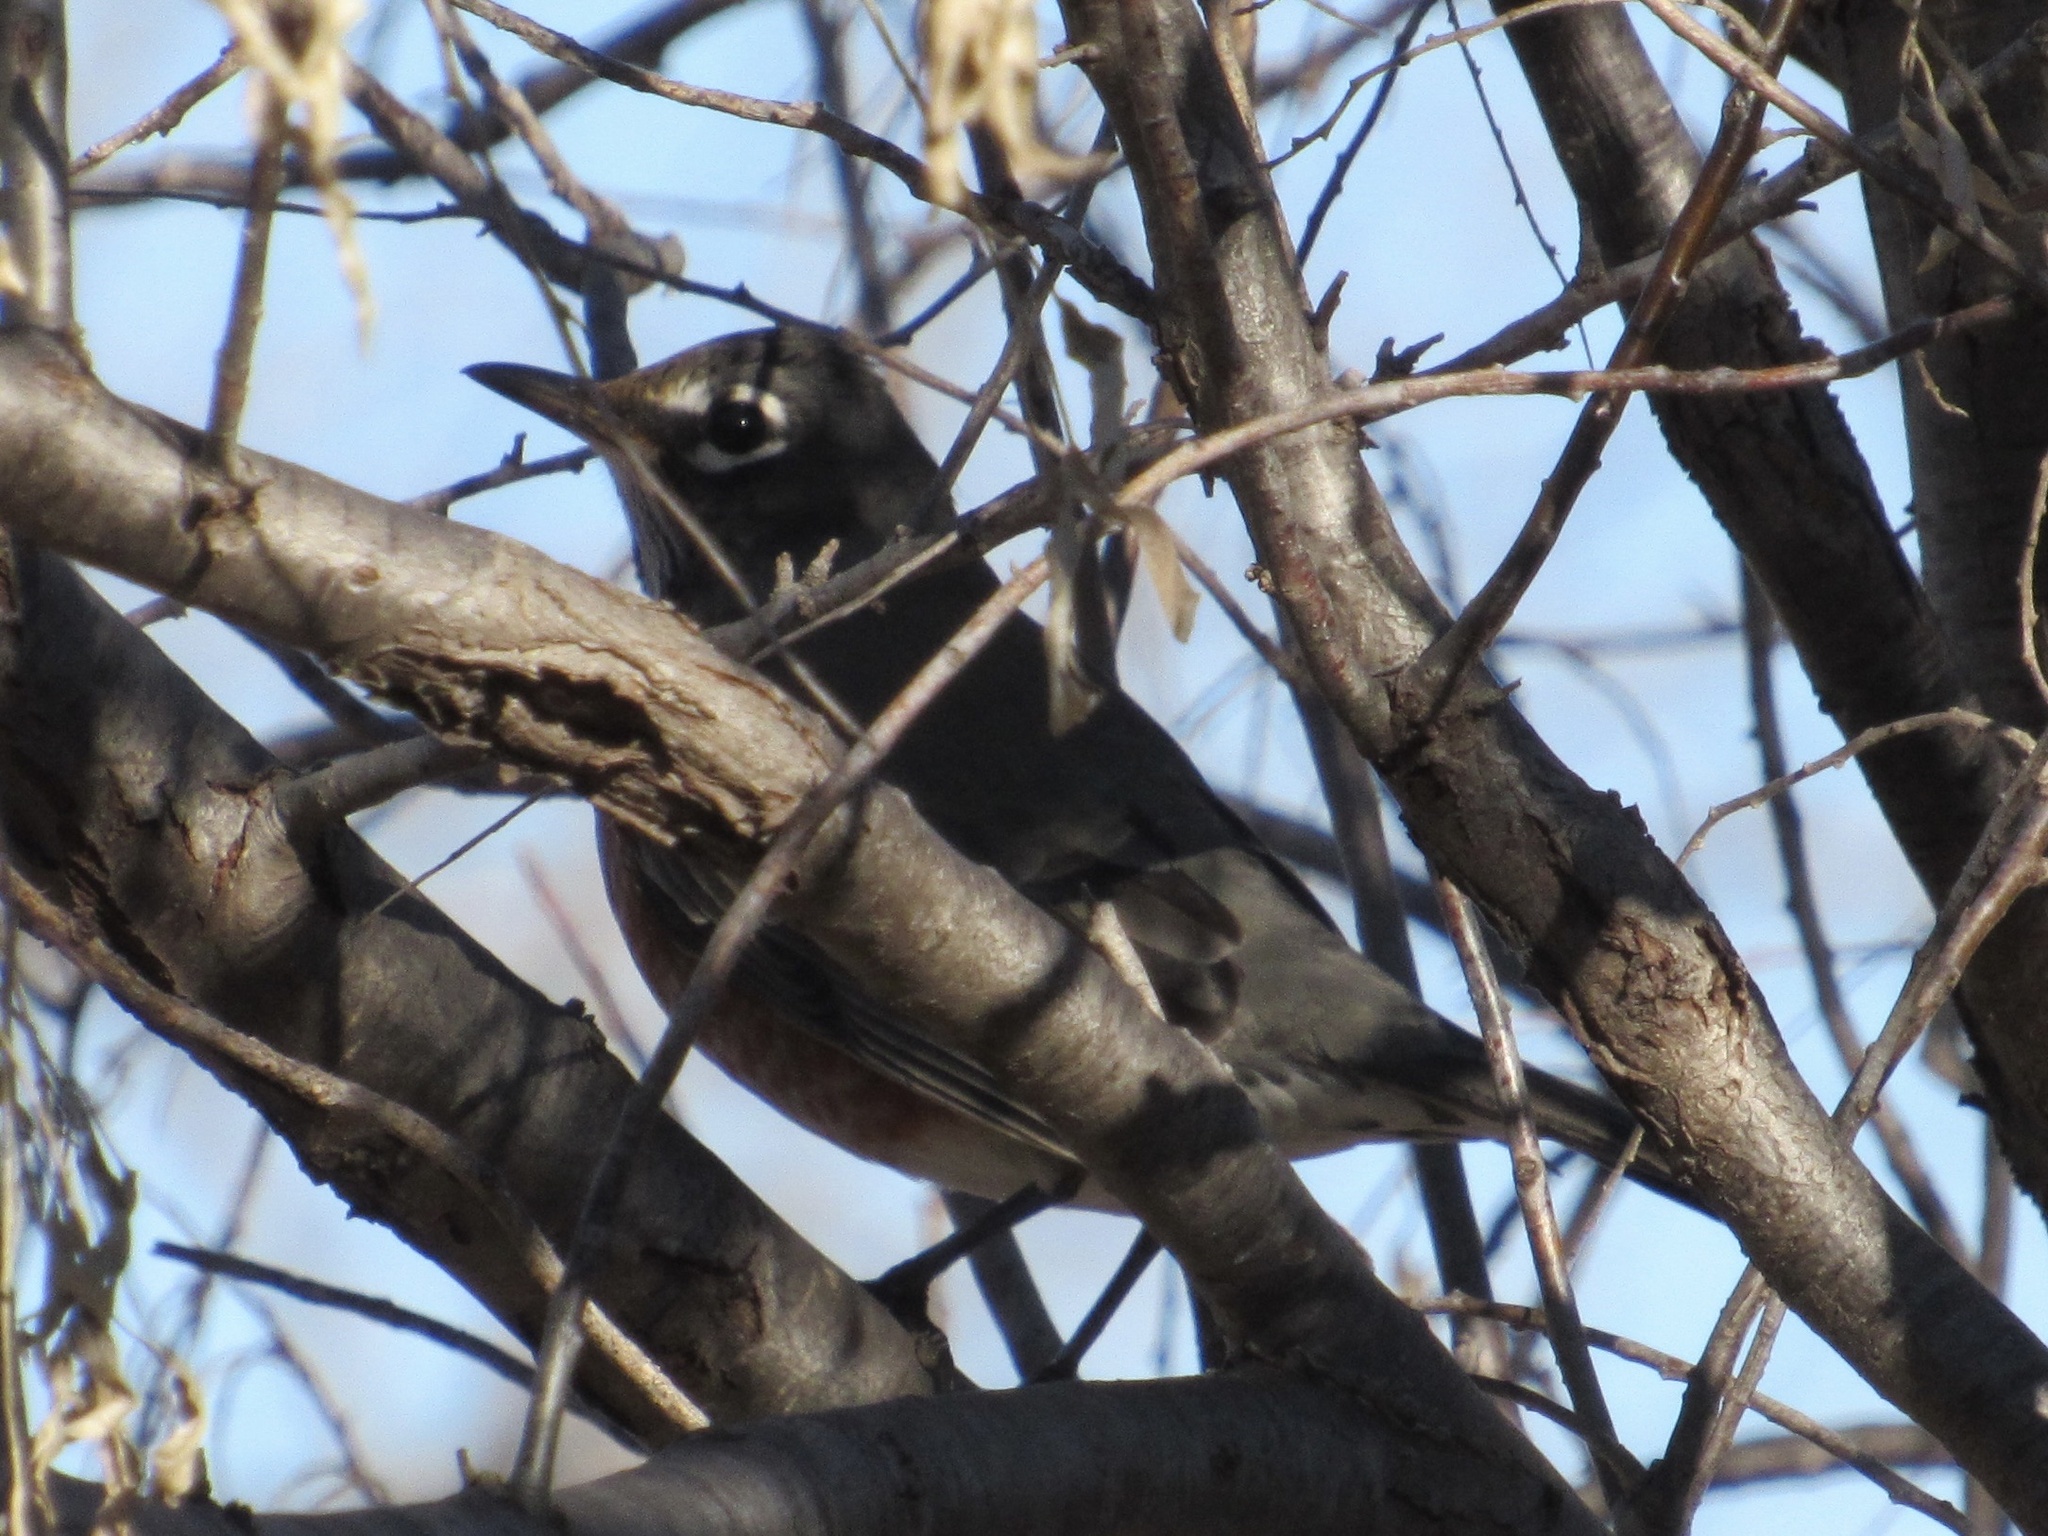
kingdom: Animalia
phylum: Chordata
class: Aves
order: Passeriformes
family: Turdidae
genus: Turdus
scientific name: Turdus migratorius
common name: American robin
